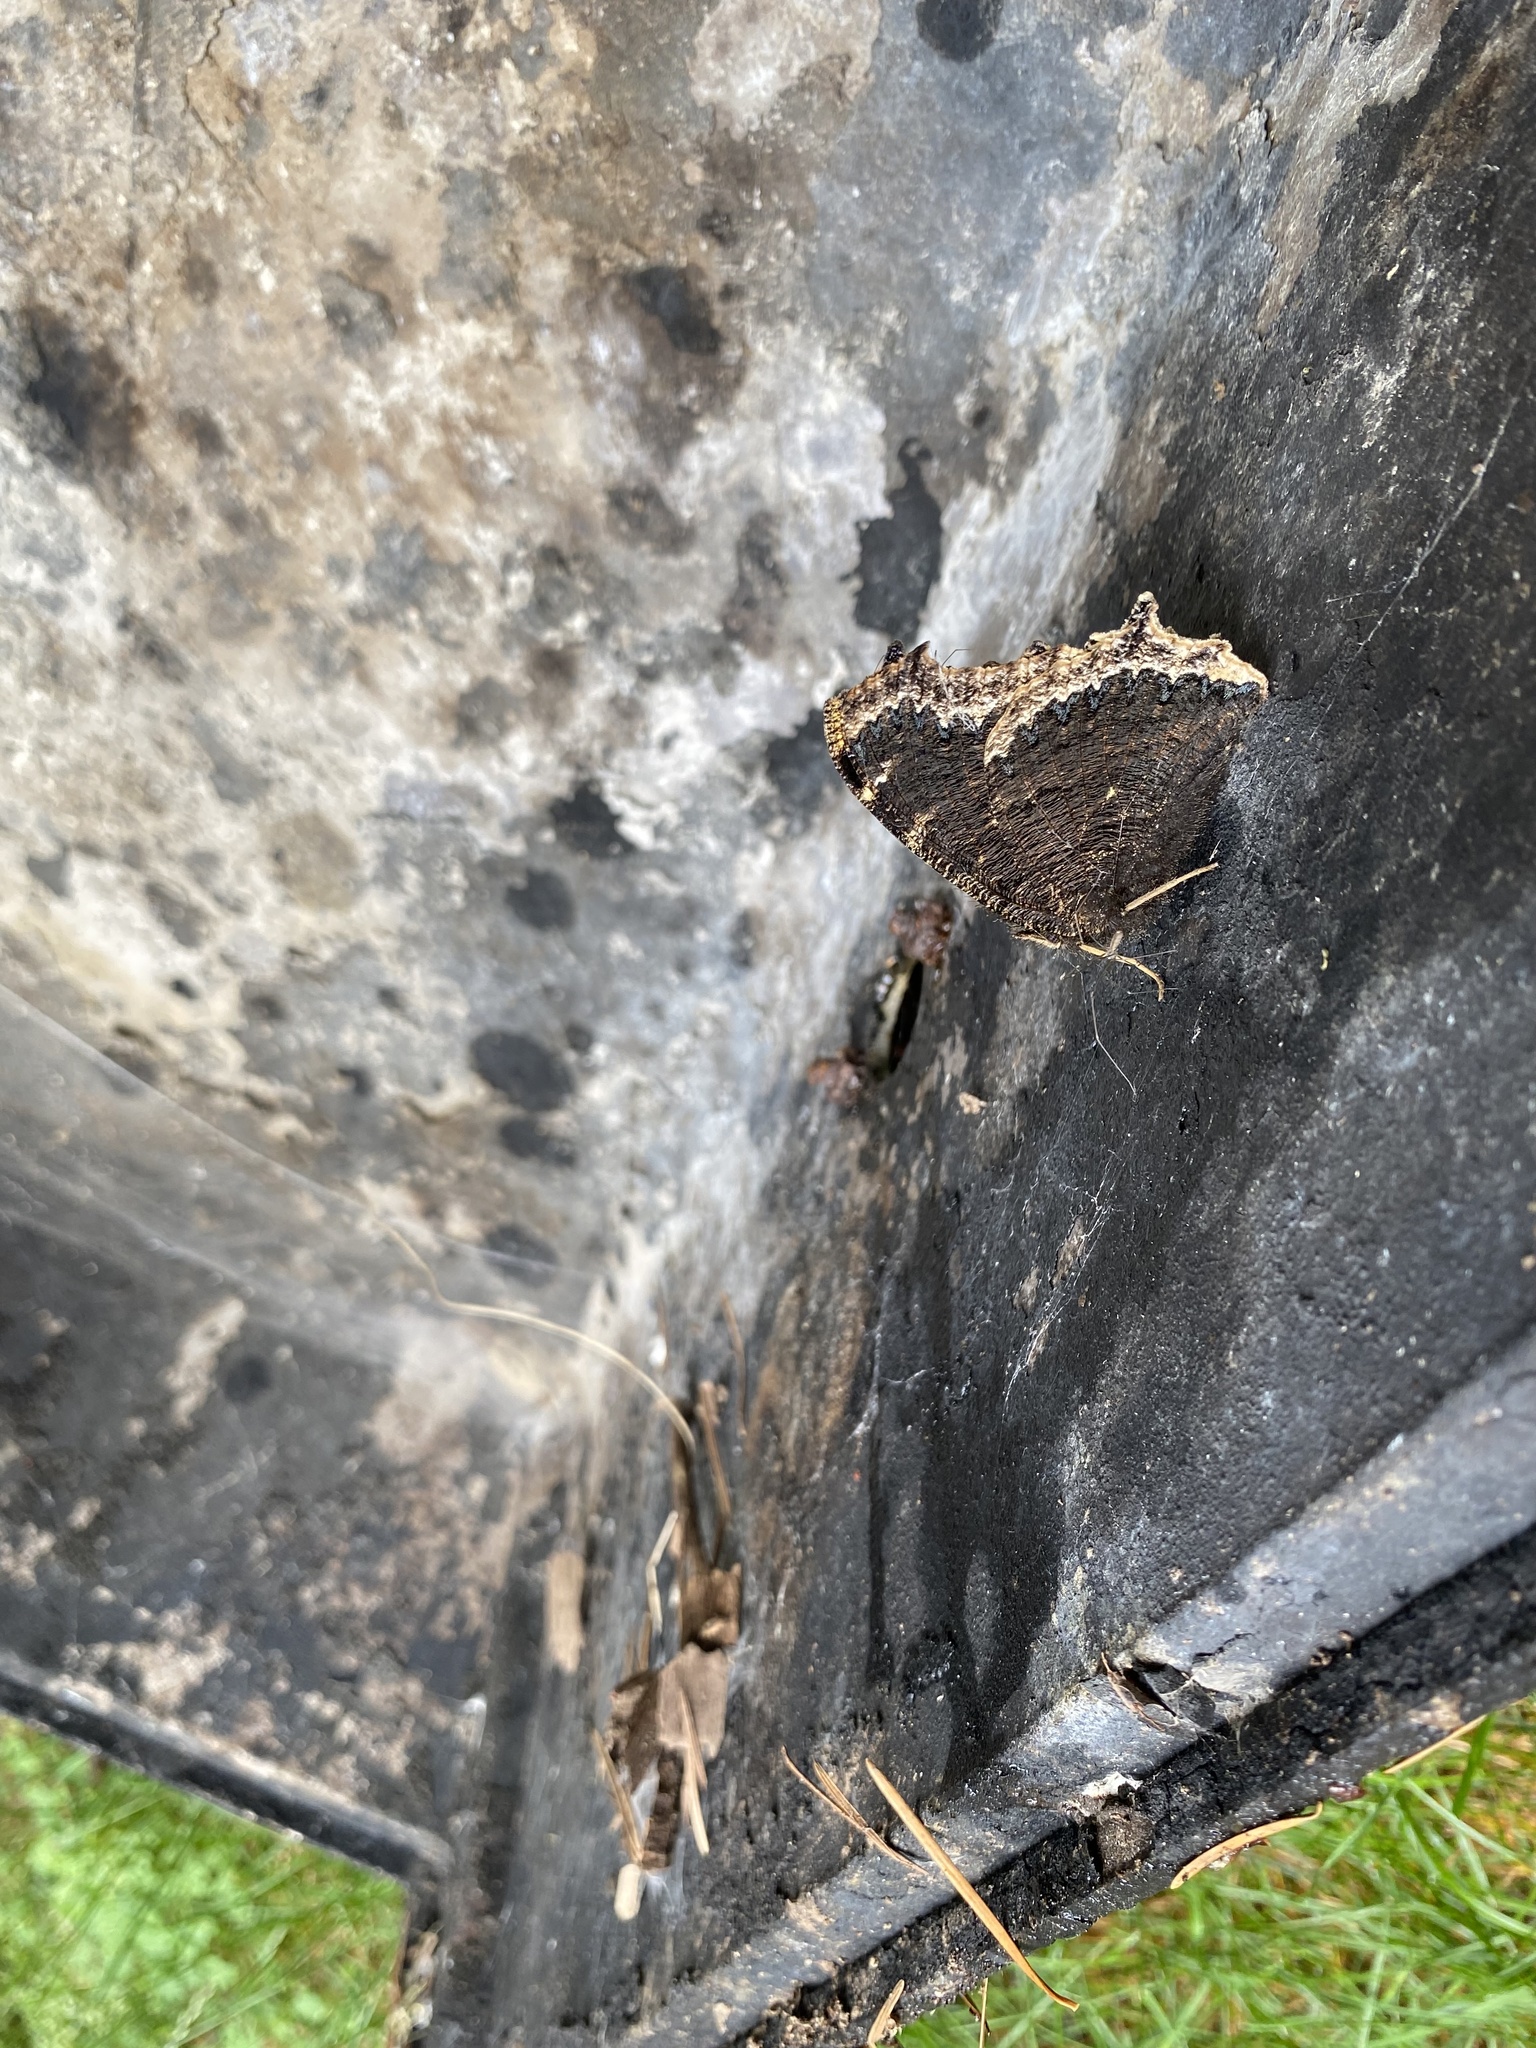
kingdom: Animalia
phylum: Arthropoda
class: Insecta
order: Lepidoptera
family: Nymphalidae
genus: Nymphalis
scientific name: Nymphalis antiopa
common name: Camberwell beauty
